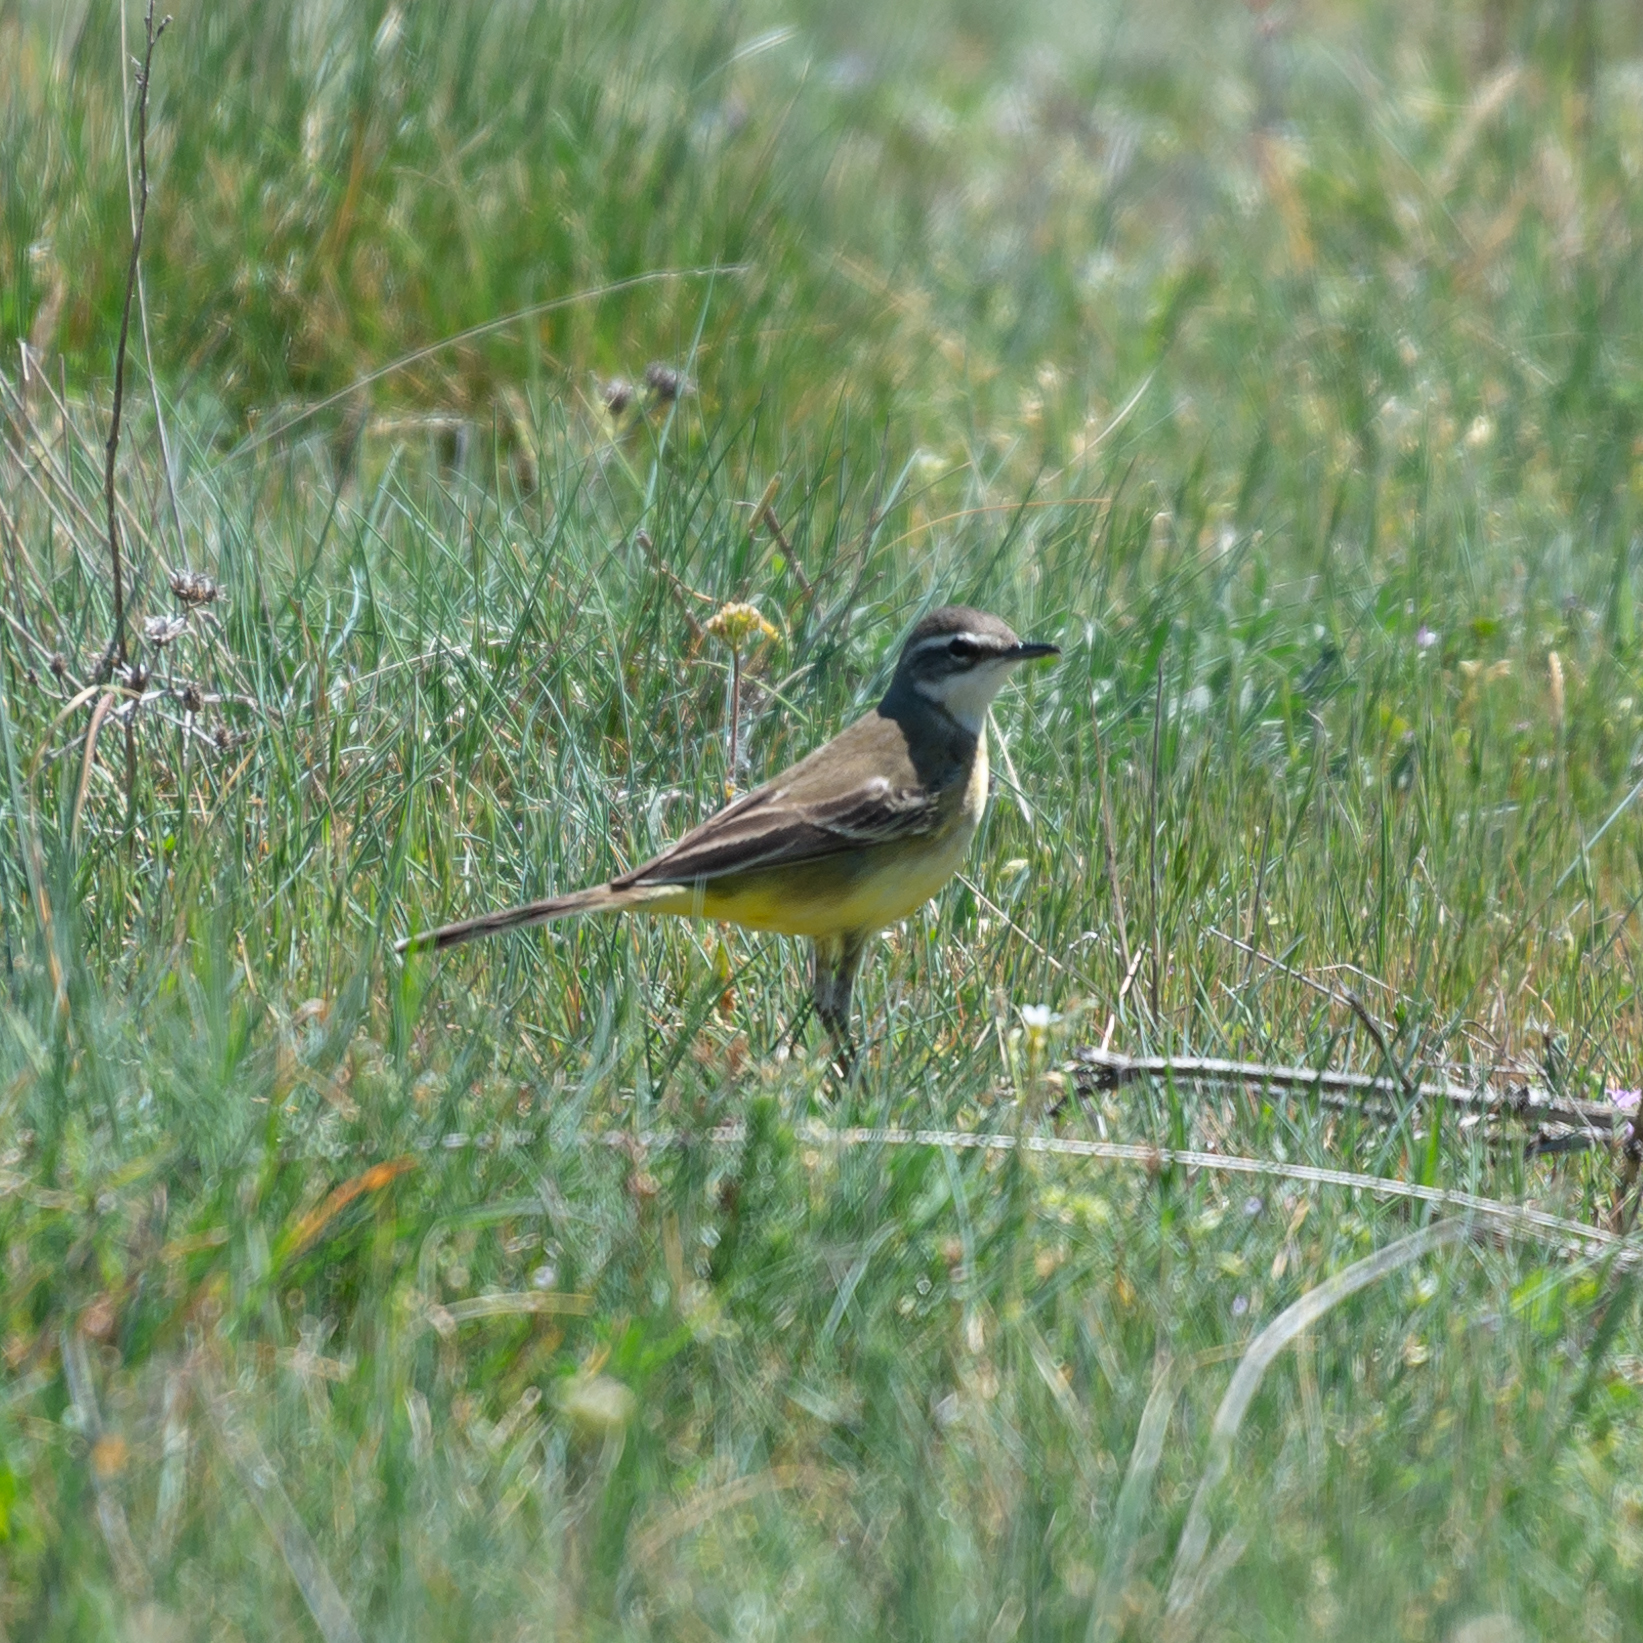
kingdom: Animalia
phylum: Chordata
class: Aves
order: Passeriformes
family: Motacillidae
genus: Motacilla
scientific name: Motacilla flava
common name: Western yellow wagtail
